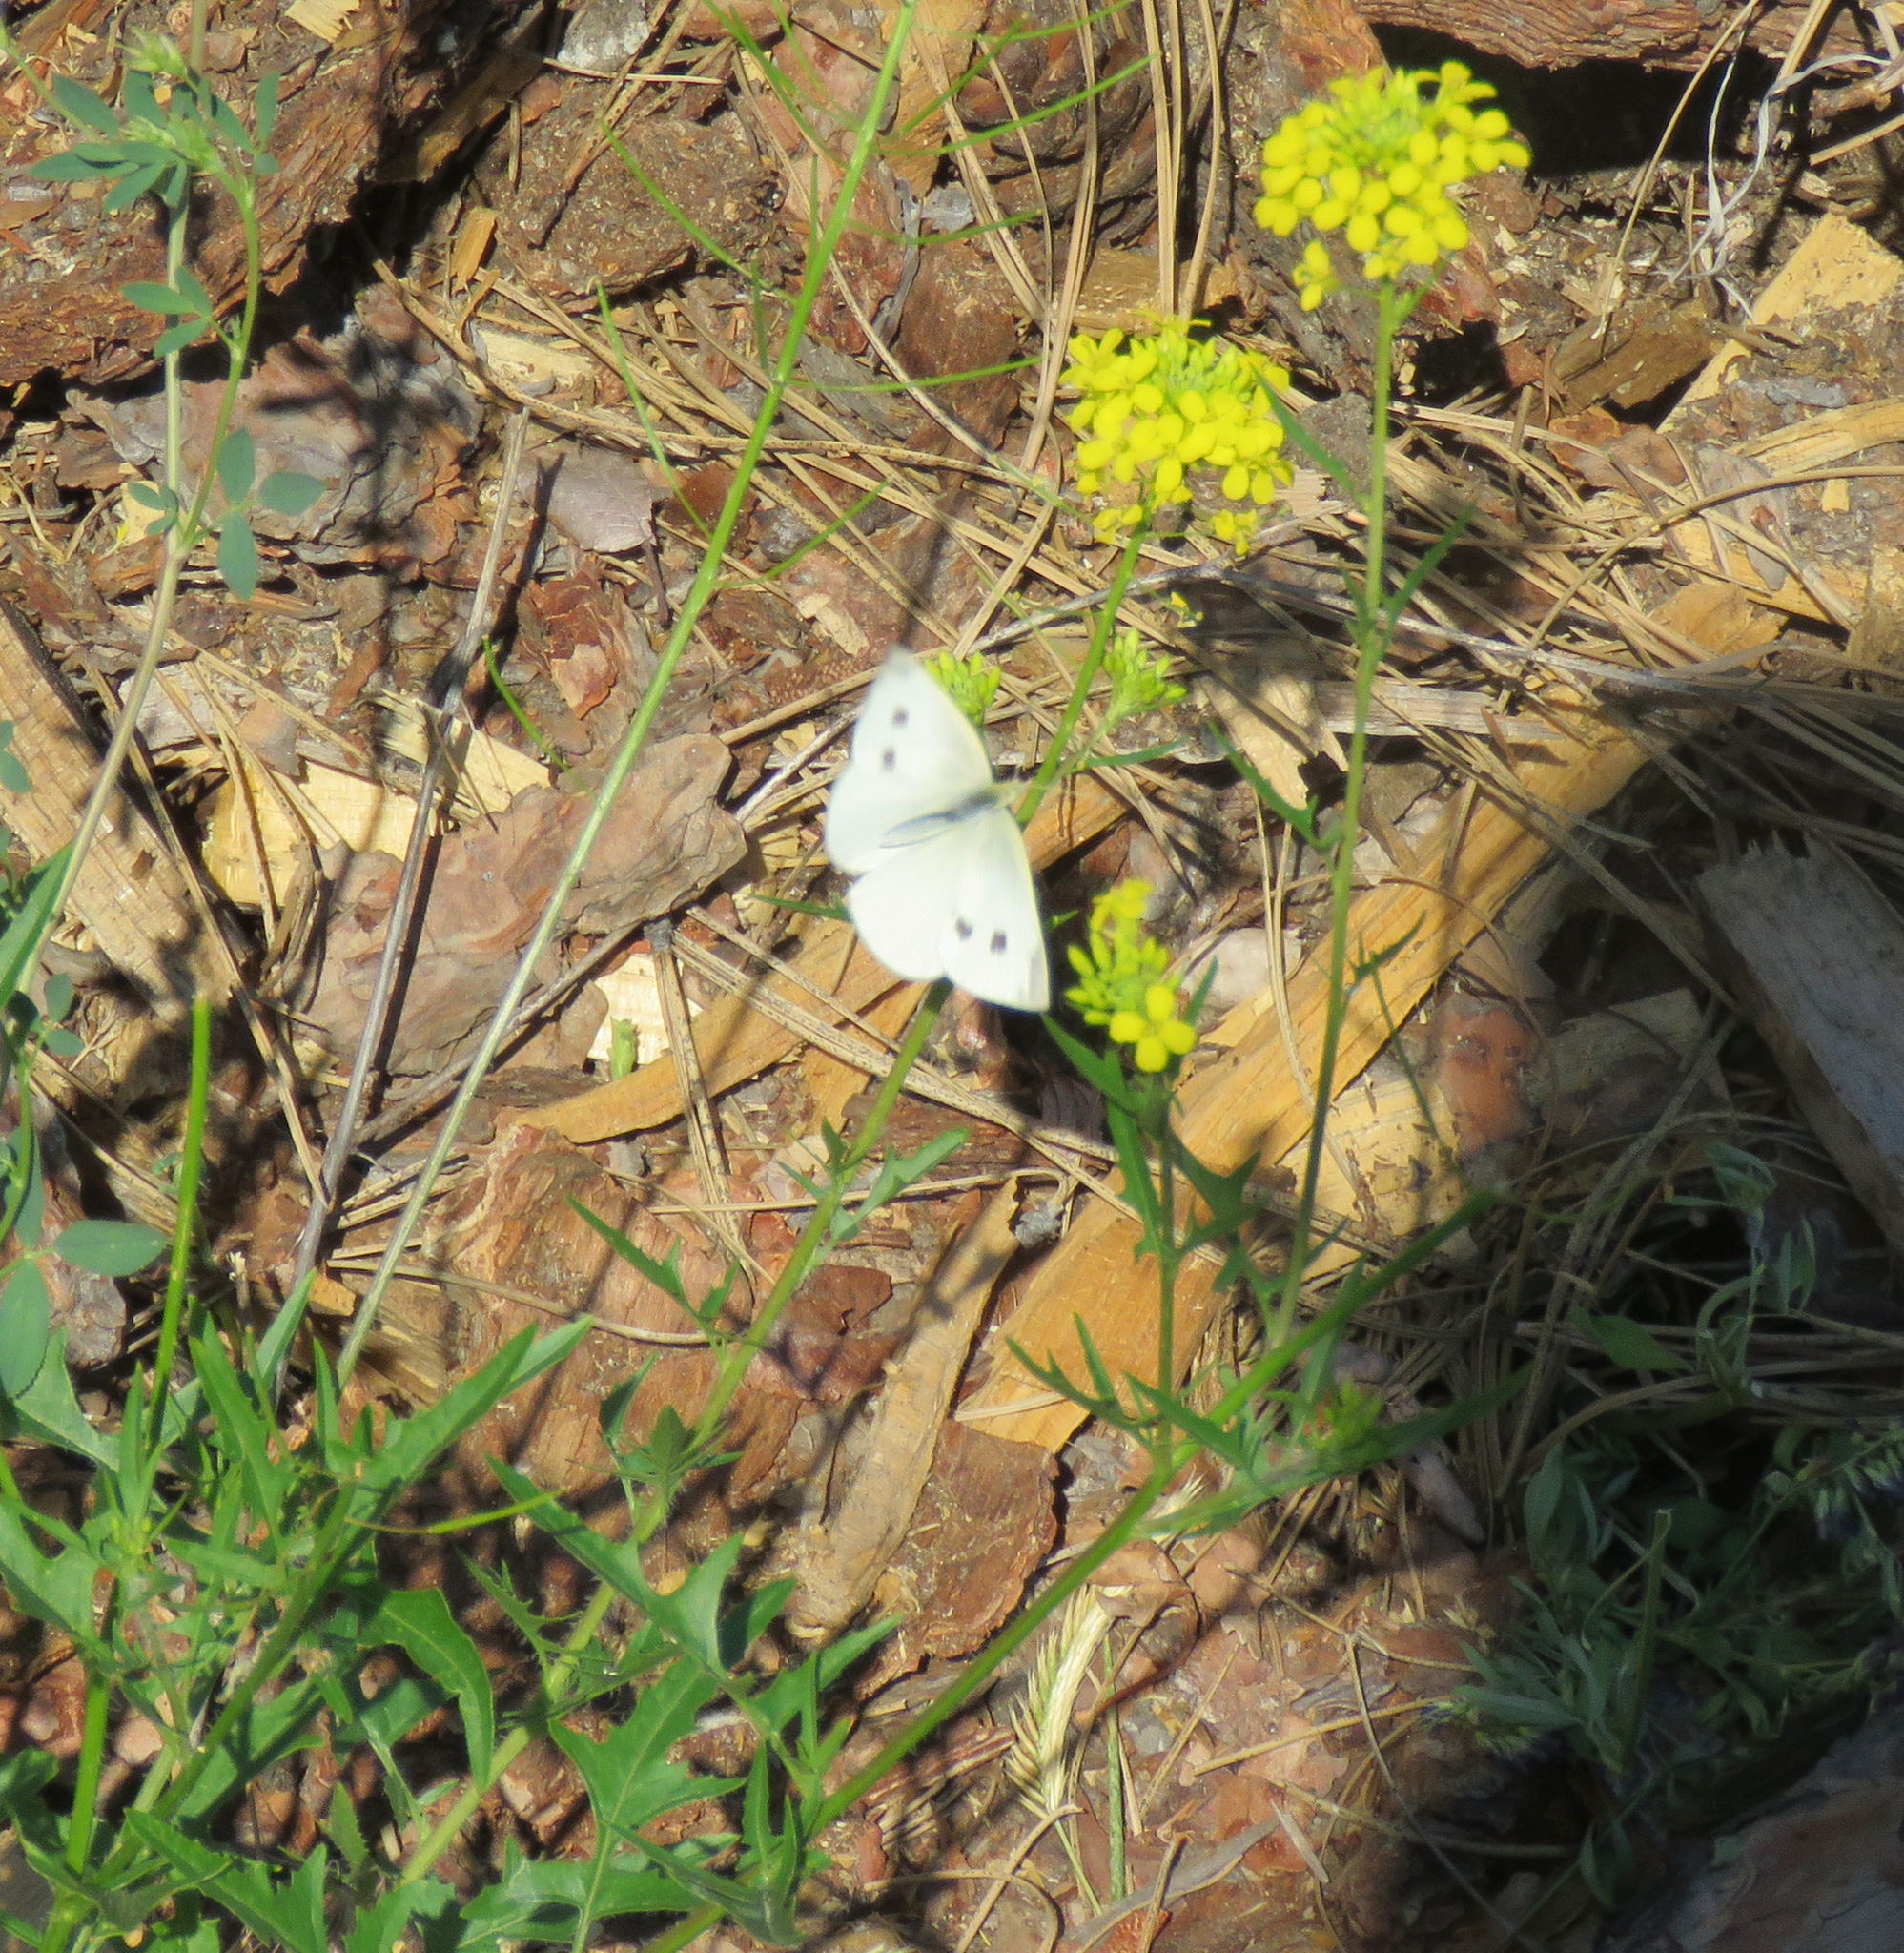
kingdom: Animalia
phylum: Arthropoda
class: Insecta
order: Lepidoptera
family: Pieridae
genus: Pieris
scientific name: Pieris rapae
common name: Small white
